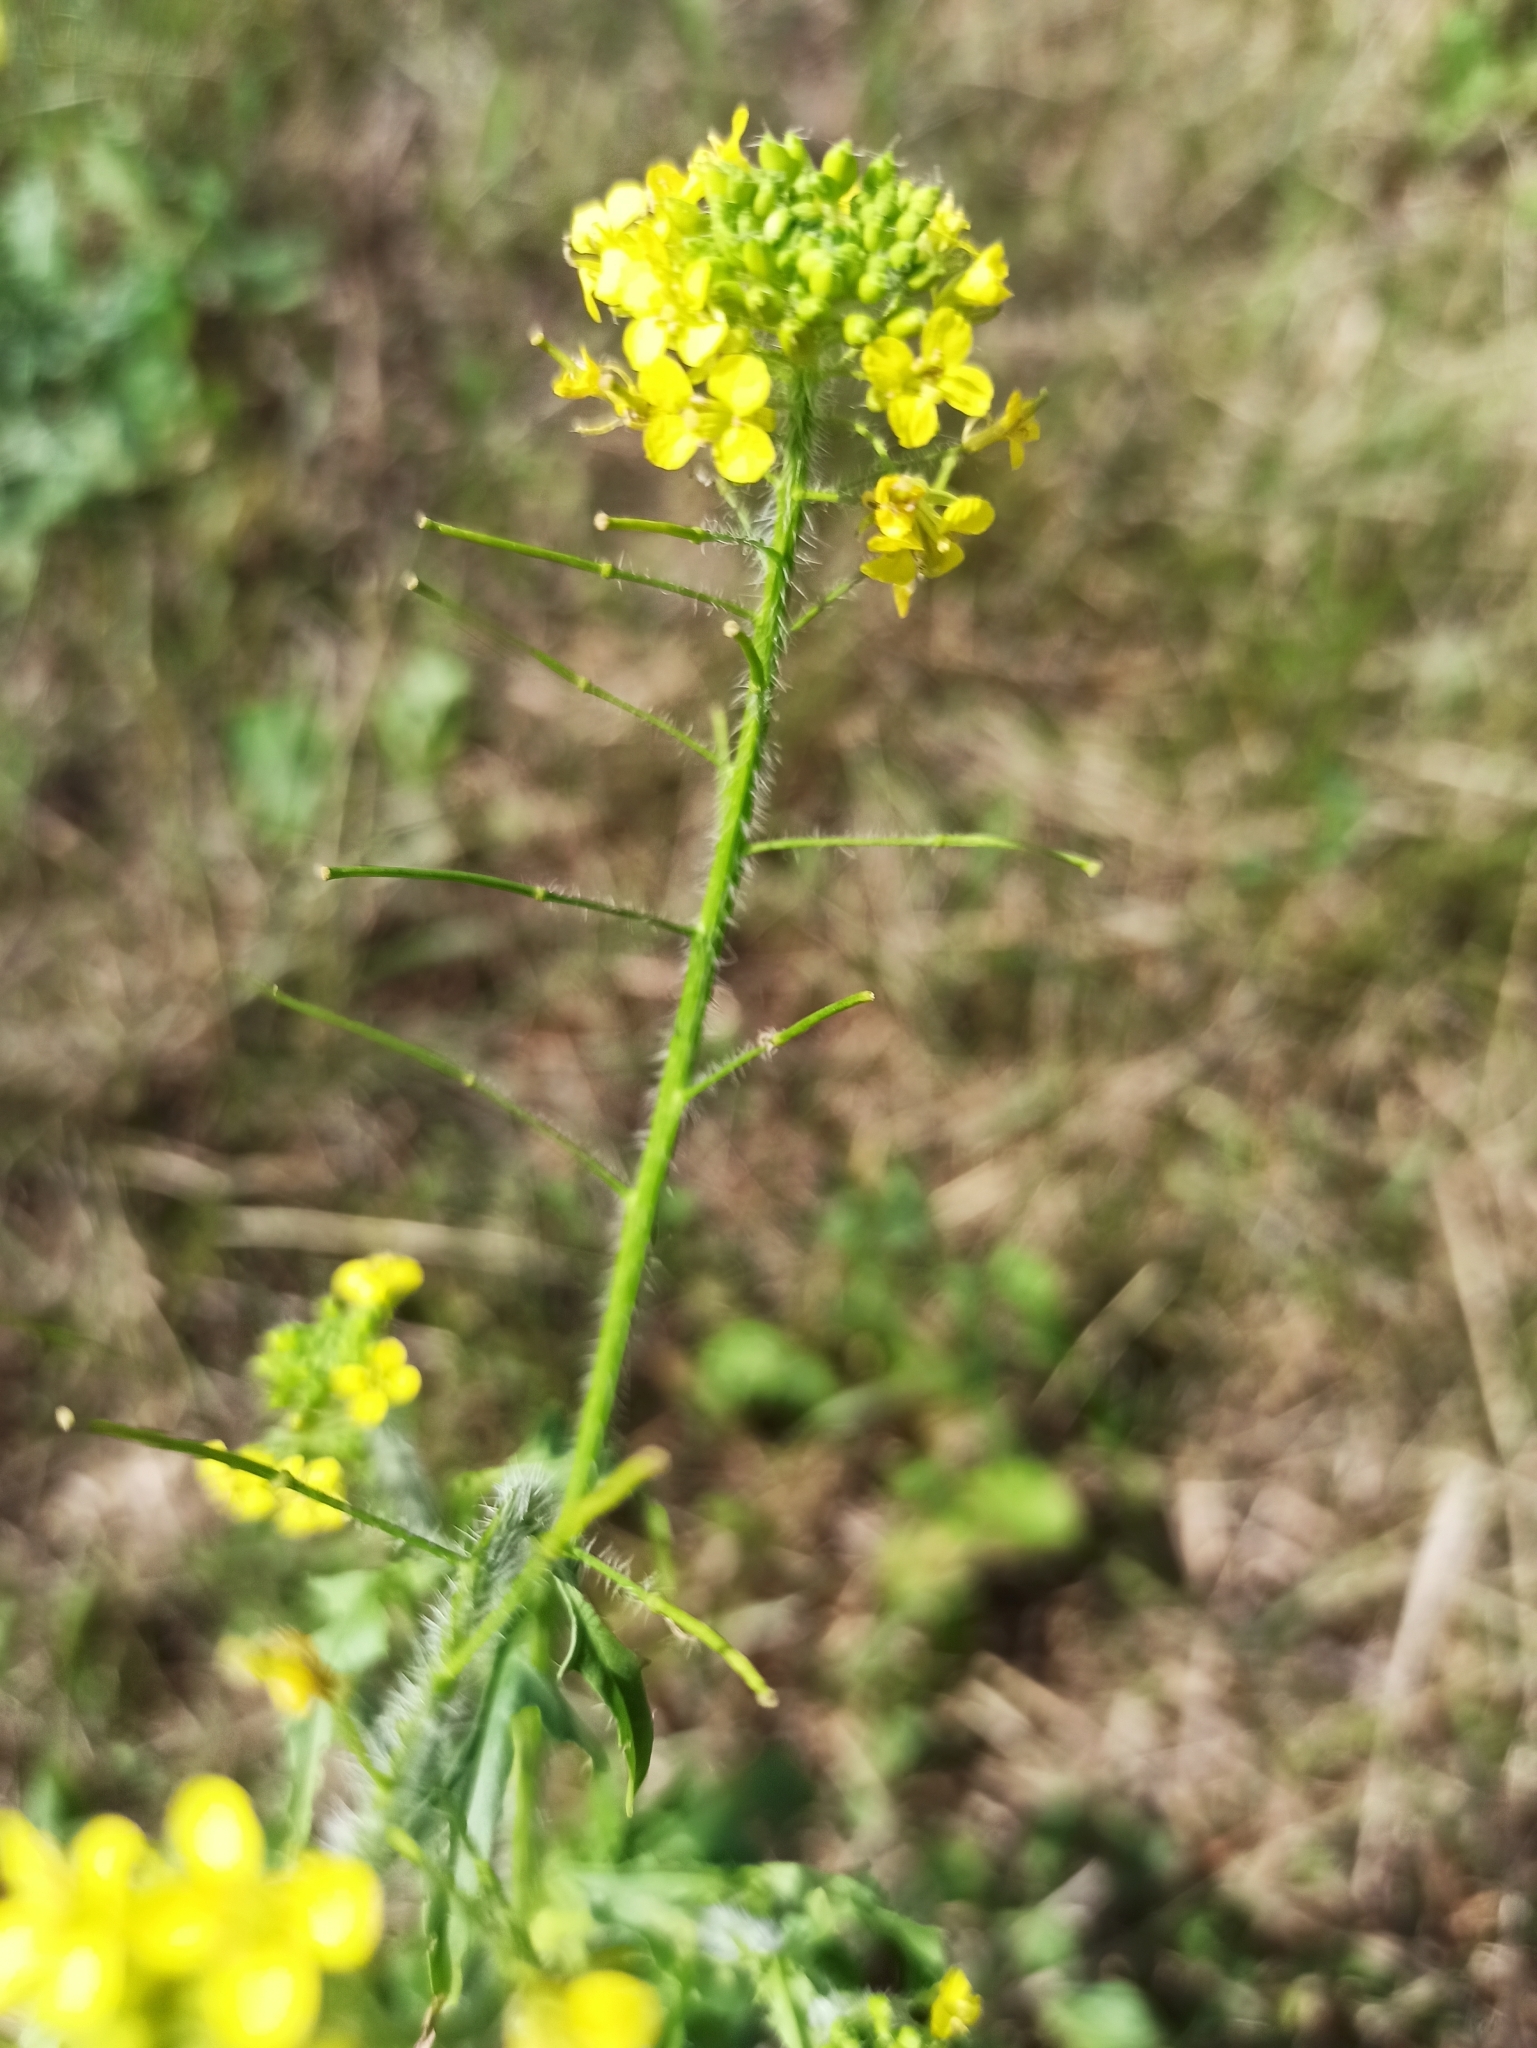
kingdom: Plantae
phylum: Tracheophyta
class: Magnoliopsida
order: Brassicales
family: Brassicaceae
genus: Sisymbrium
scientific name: Sisymbrium loeselii
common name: False london-rocket
